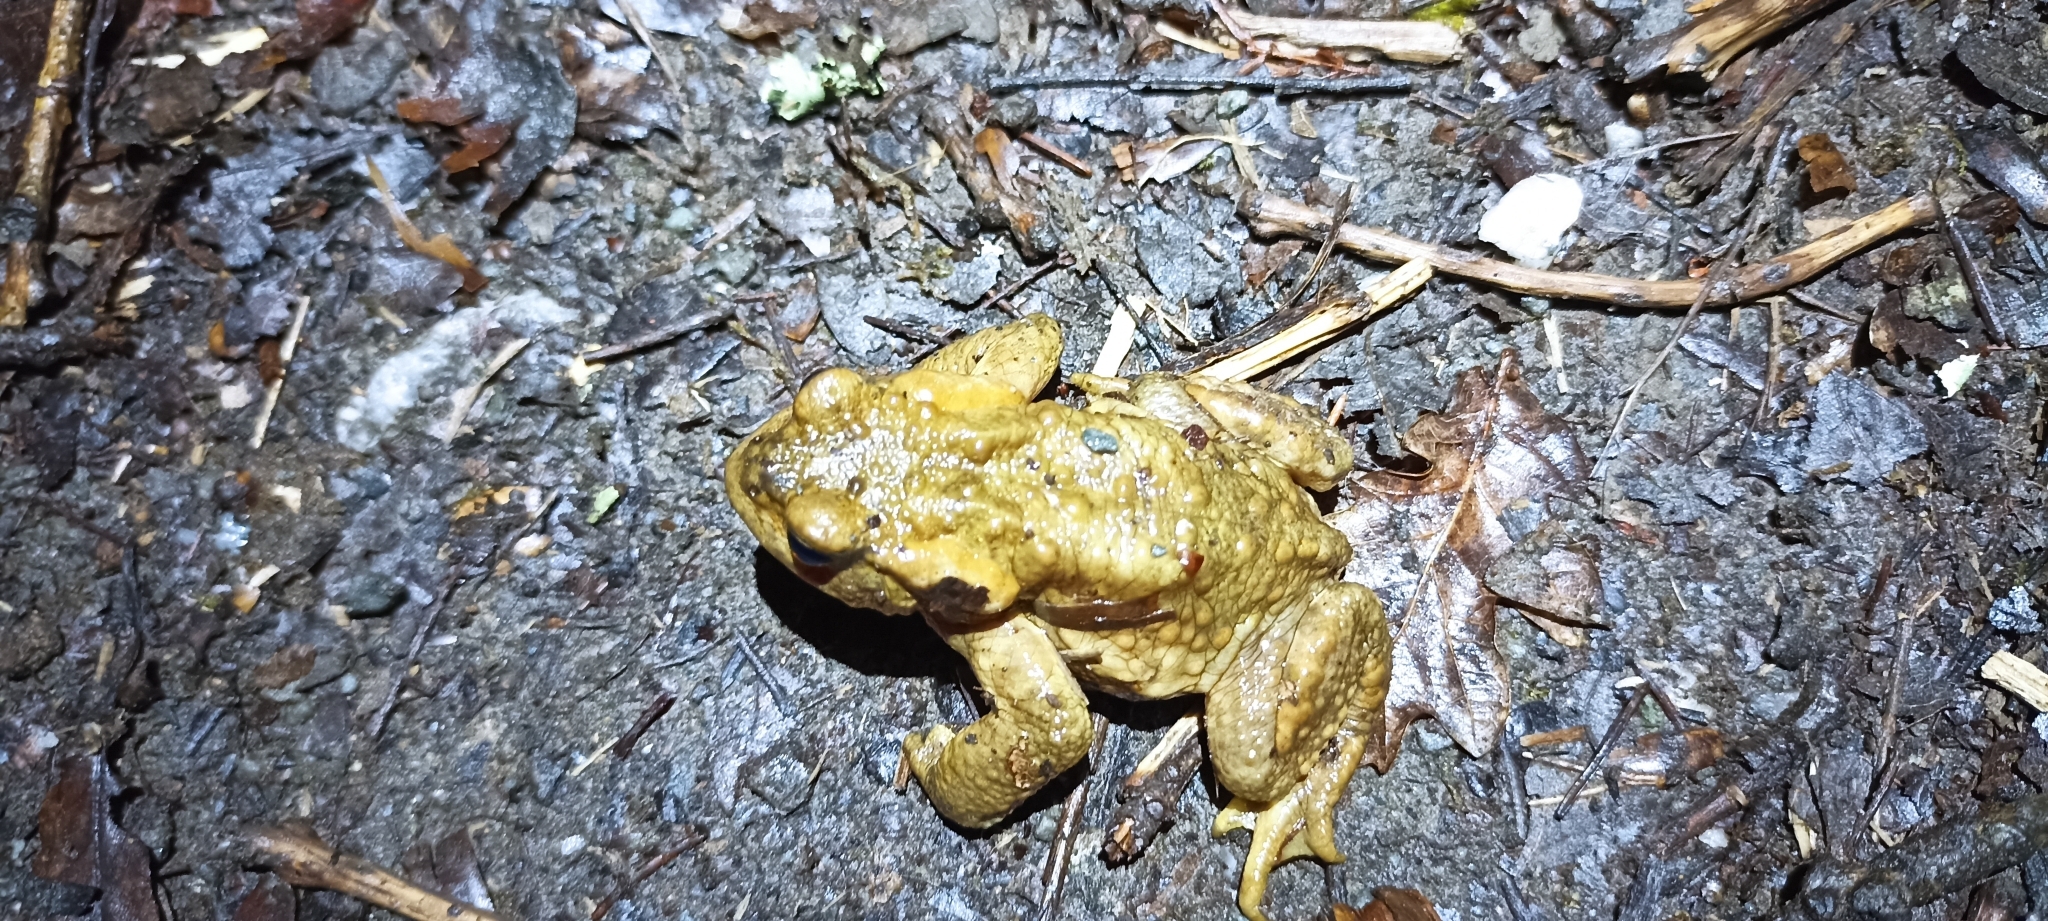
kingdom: Animalia
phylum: Chordata
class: Amphibia
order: Anura
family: Bufonidae
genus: Bufo
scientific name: Bufo spinosus
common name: Western common toad
